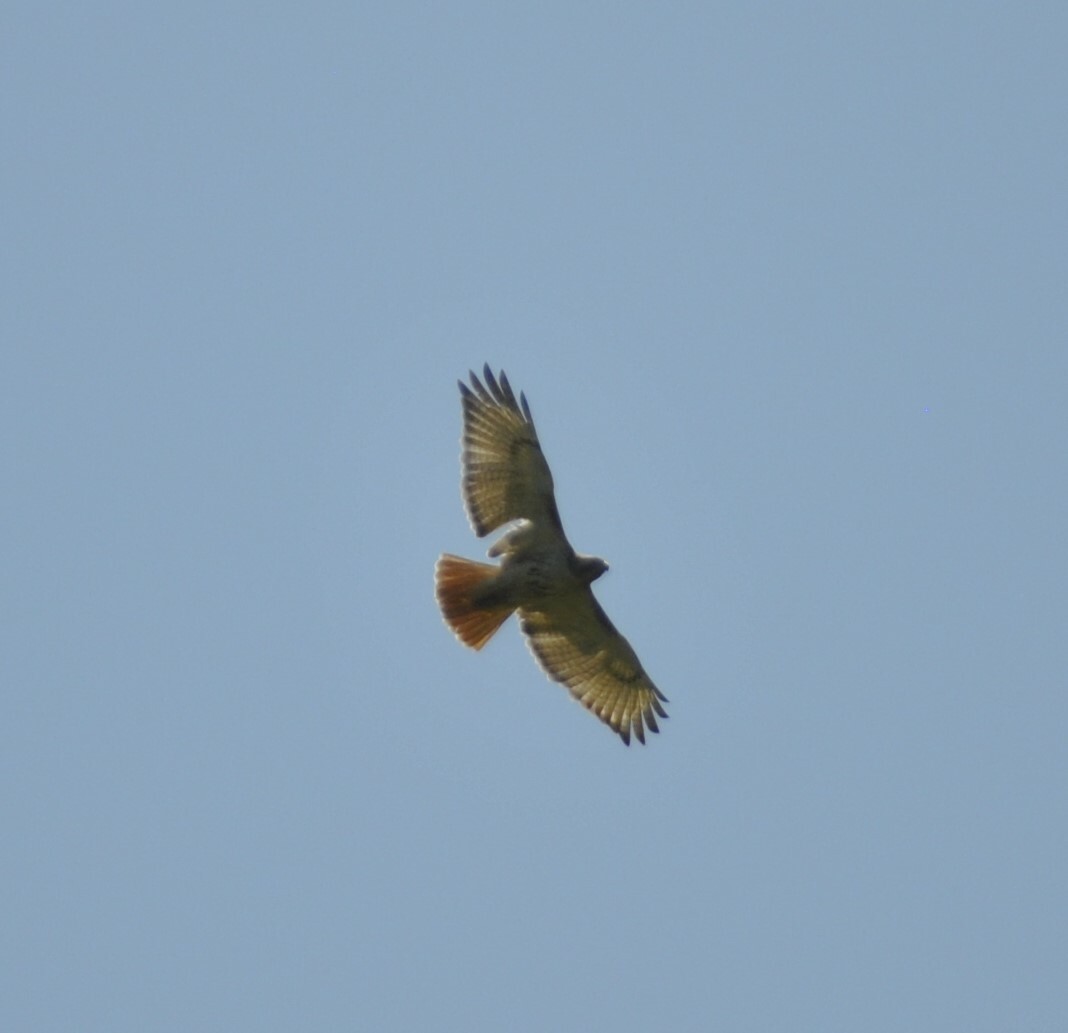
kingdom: Animalia
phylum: Chordata
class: Aves
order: Accipitriformes
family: Accipitridae
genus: Buteo
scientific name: Buteo jamaicensis
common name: Red-tailed hawk
